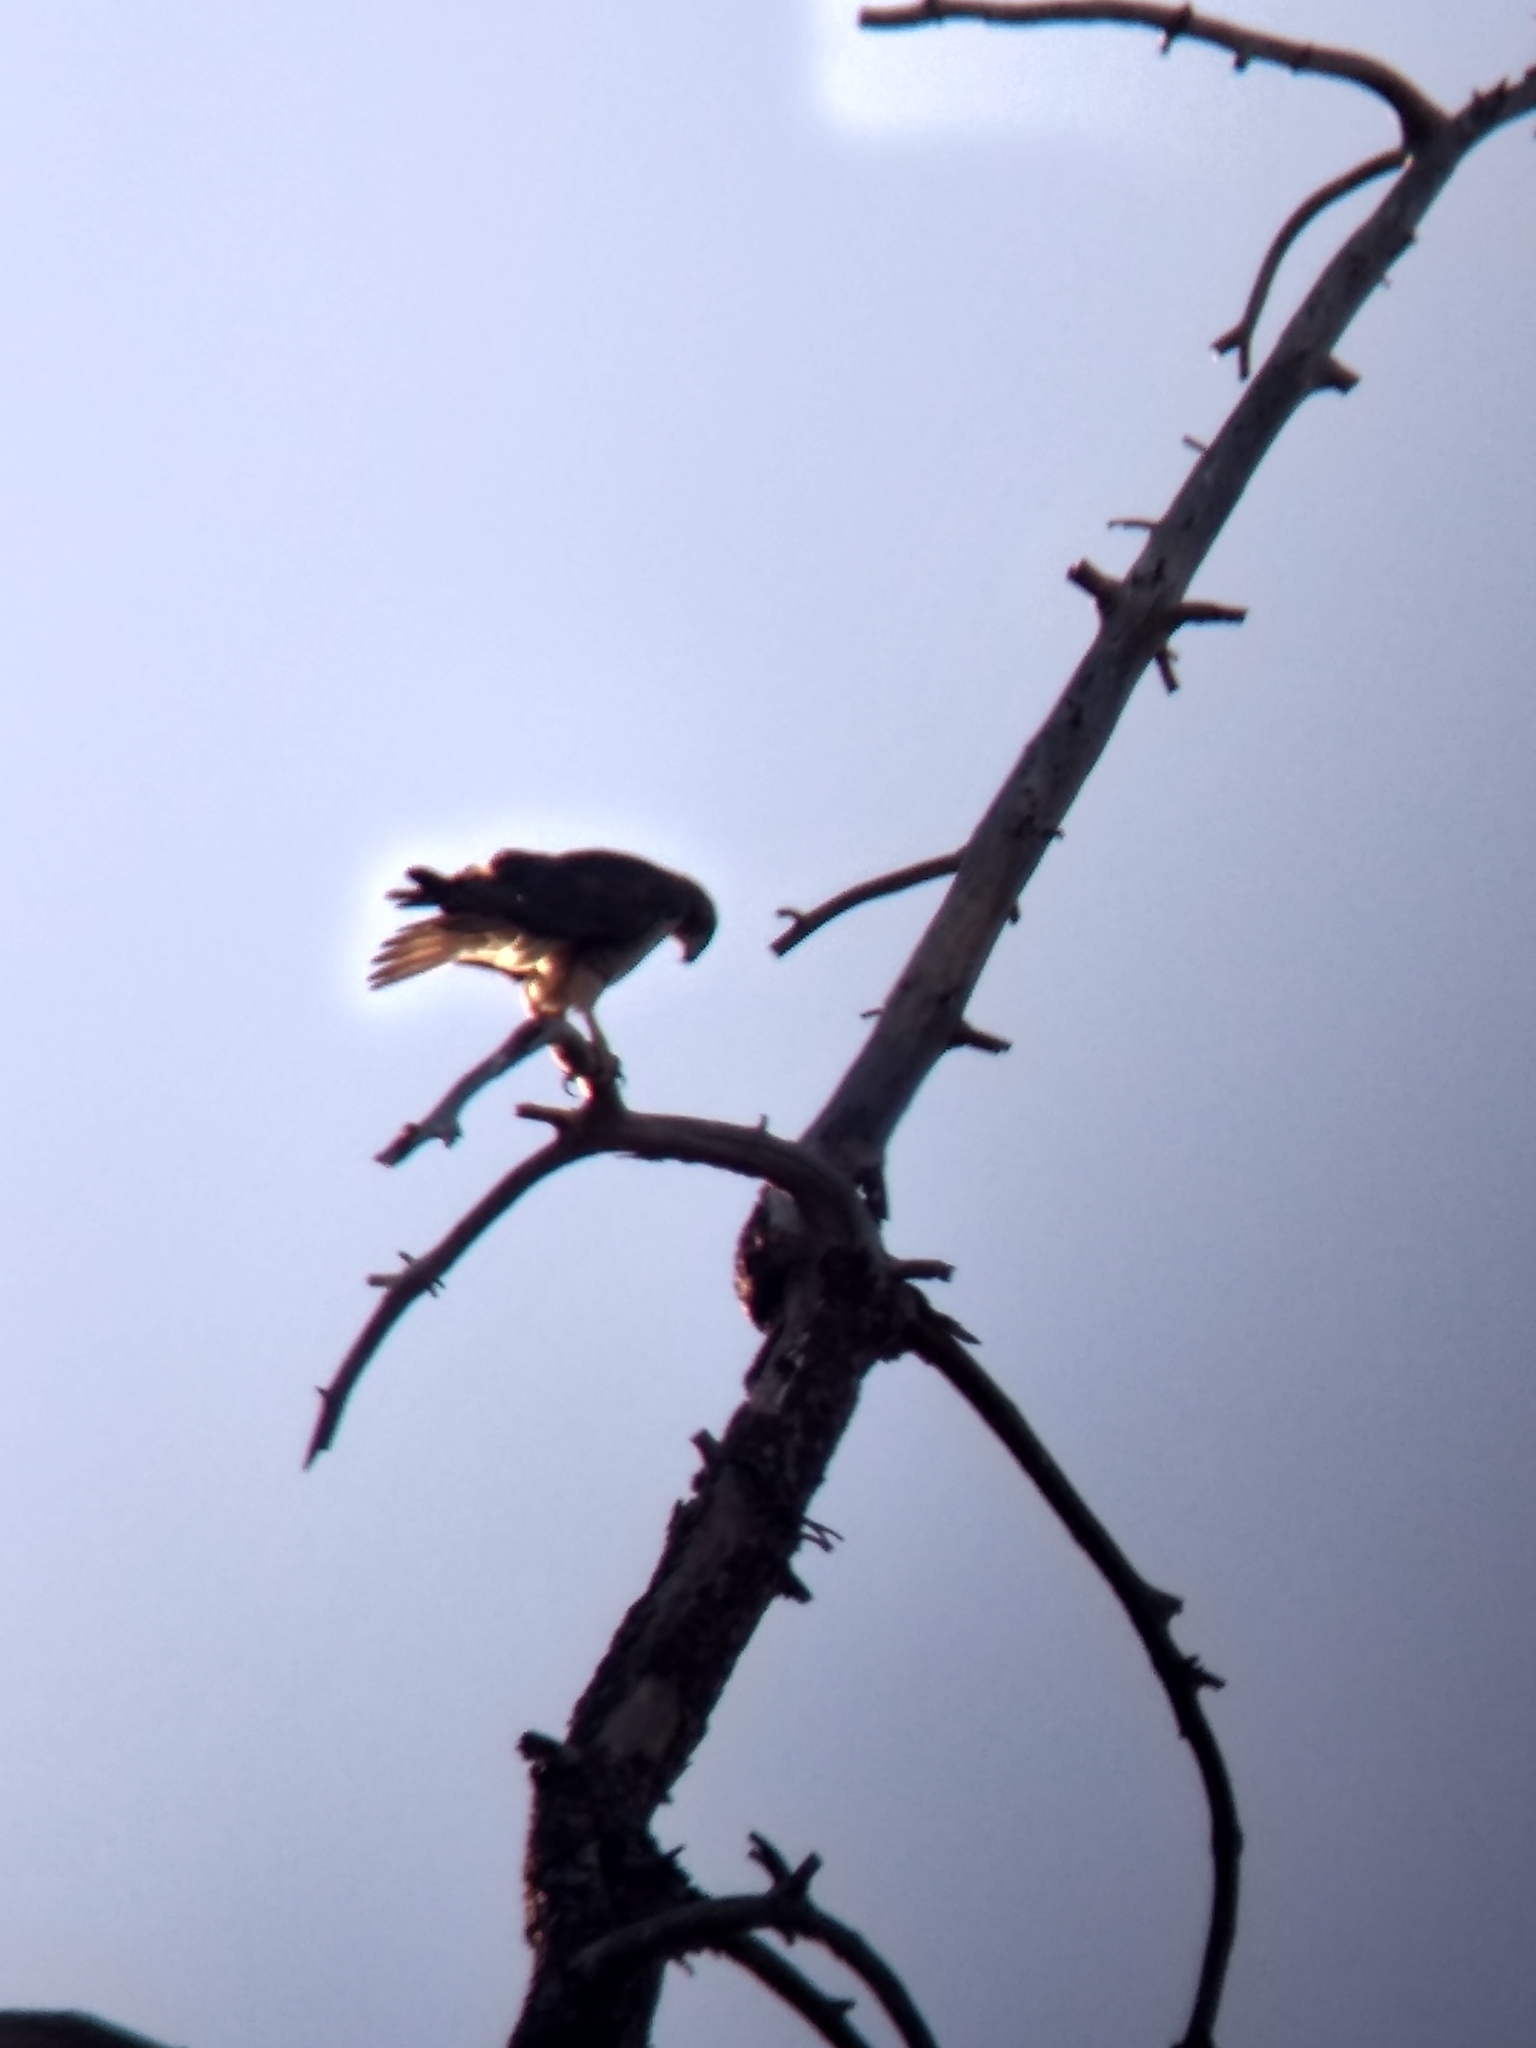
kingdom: Animalia
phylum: Chordata
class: Aves
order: Accipitriformes
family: Accipitridae
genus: Buteo
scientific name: Buteo jamaicensis
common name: Red-tailed hawk
